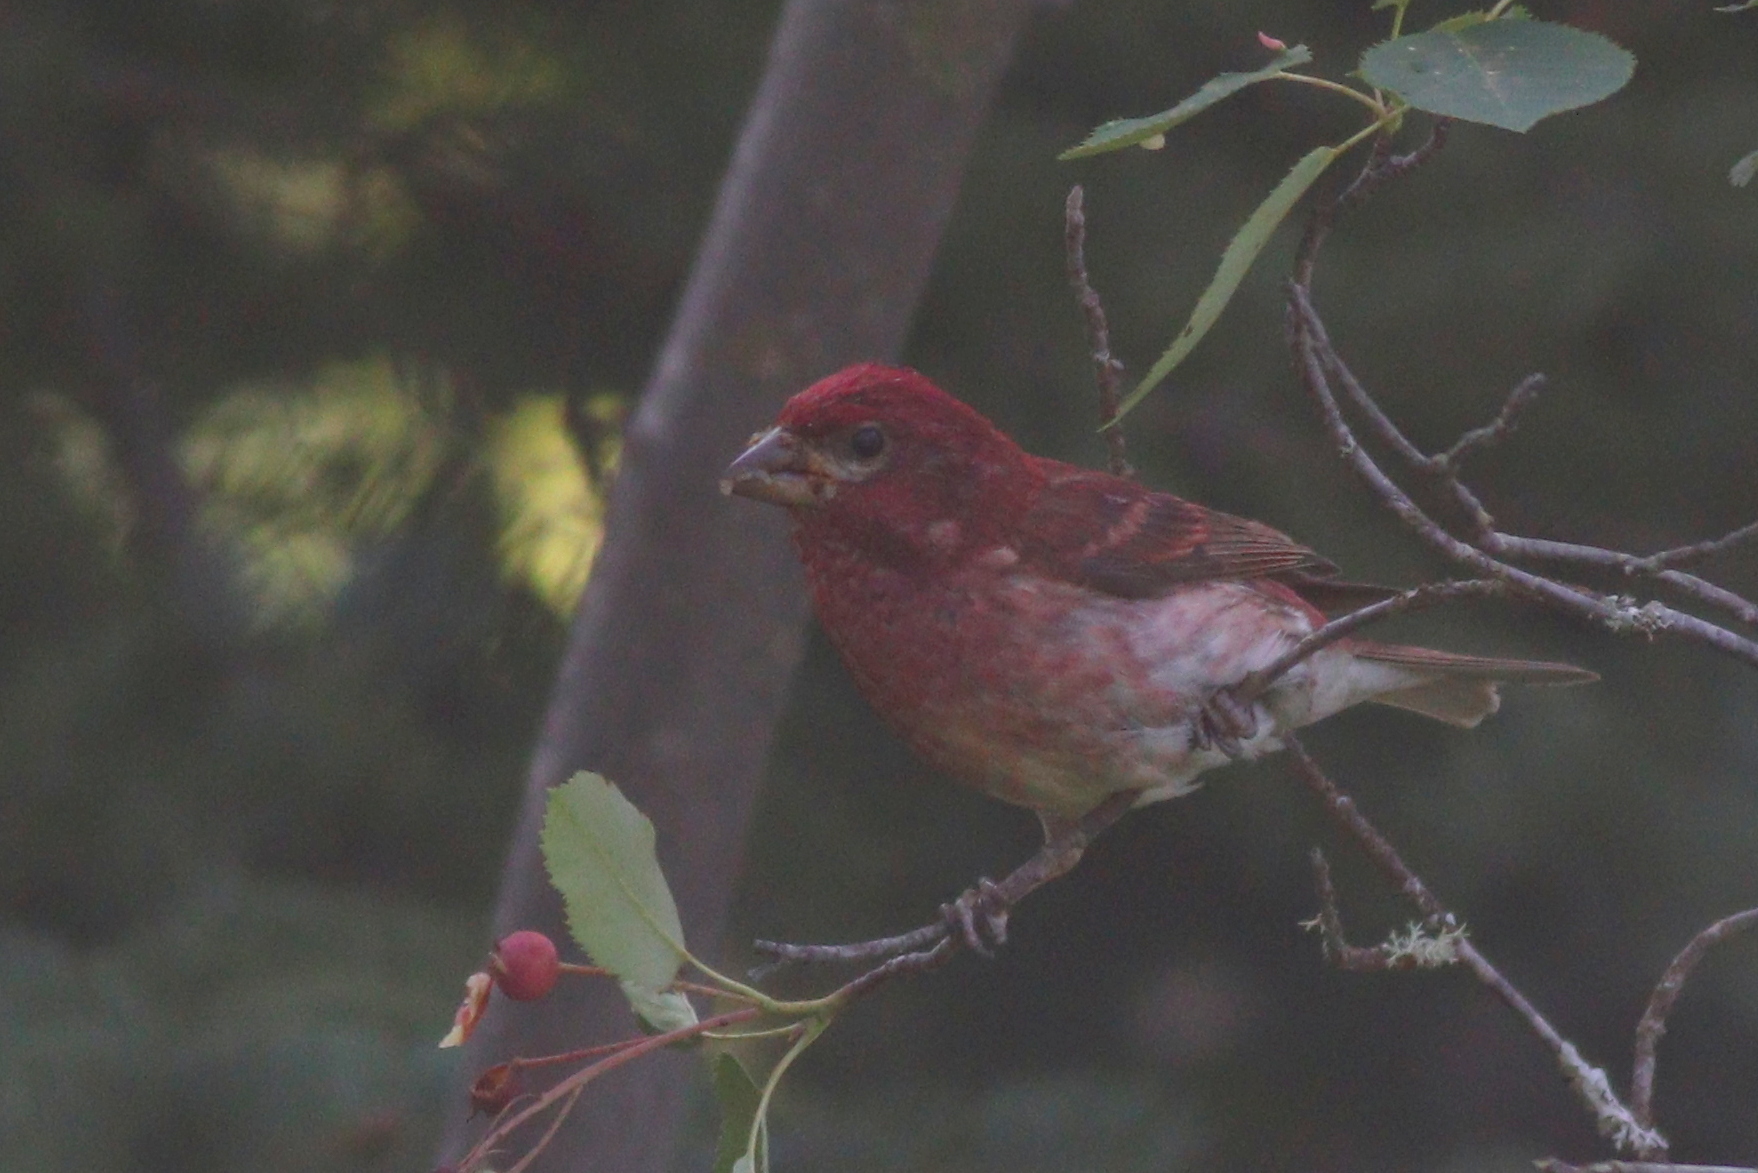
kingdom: Animalia
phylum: Chordata
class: Aves
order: Passeriformes
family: Fringillidae
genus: Haemorhous
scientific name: Haemorhous purpureus
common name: Purple finch
